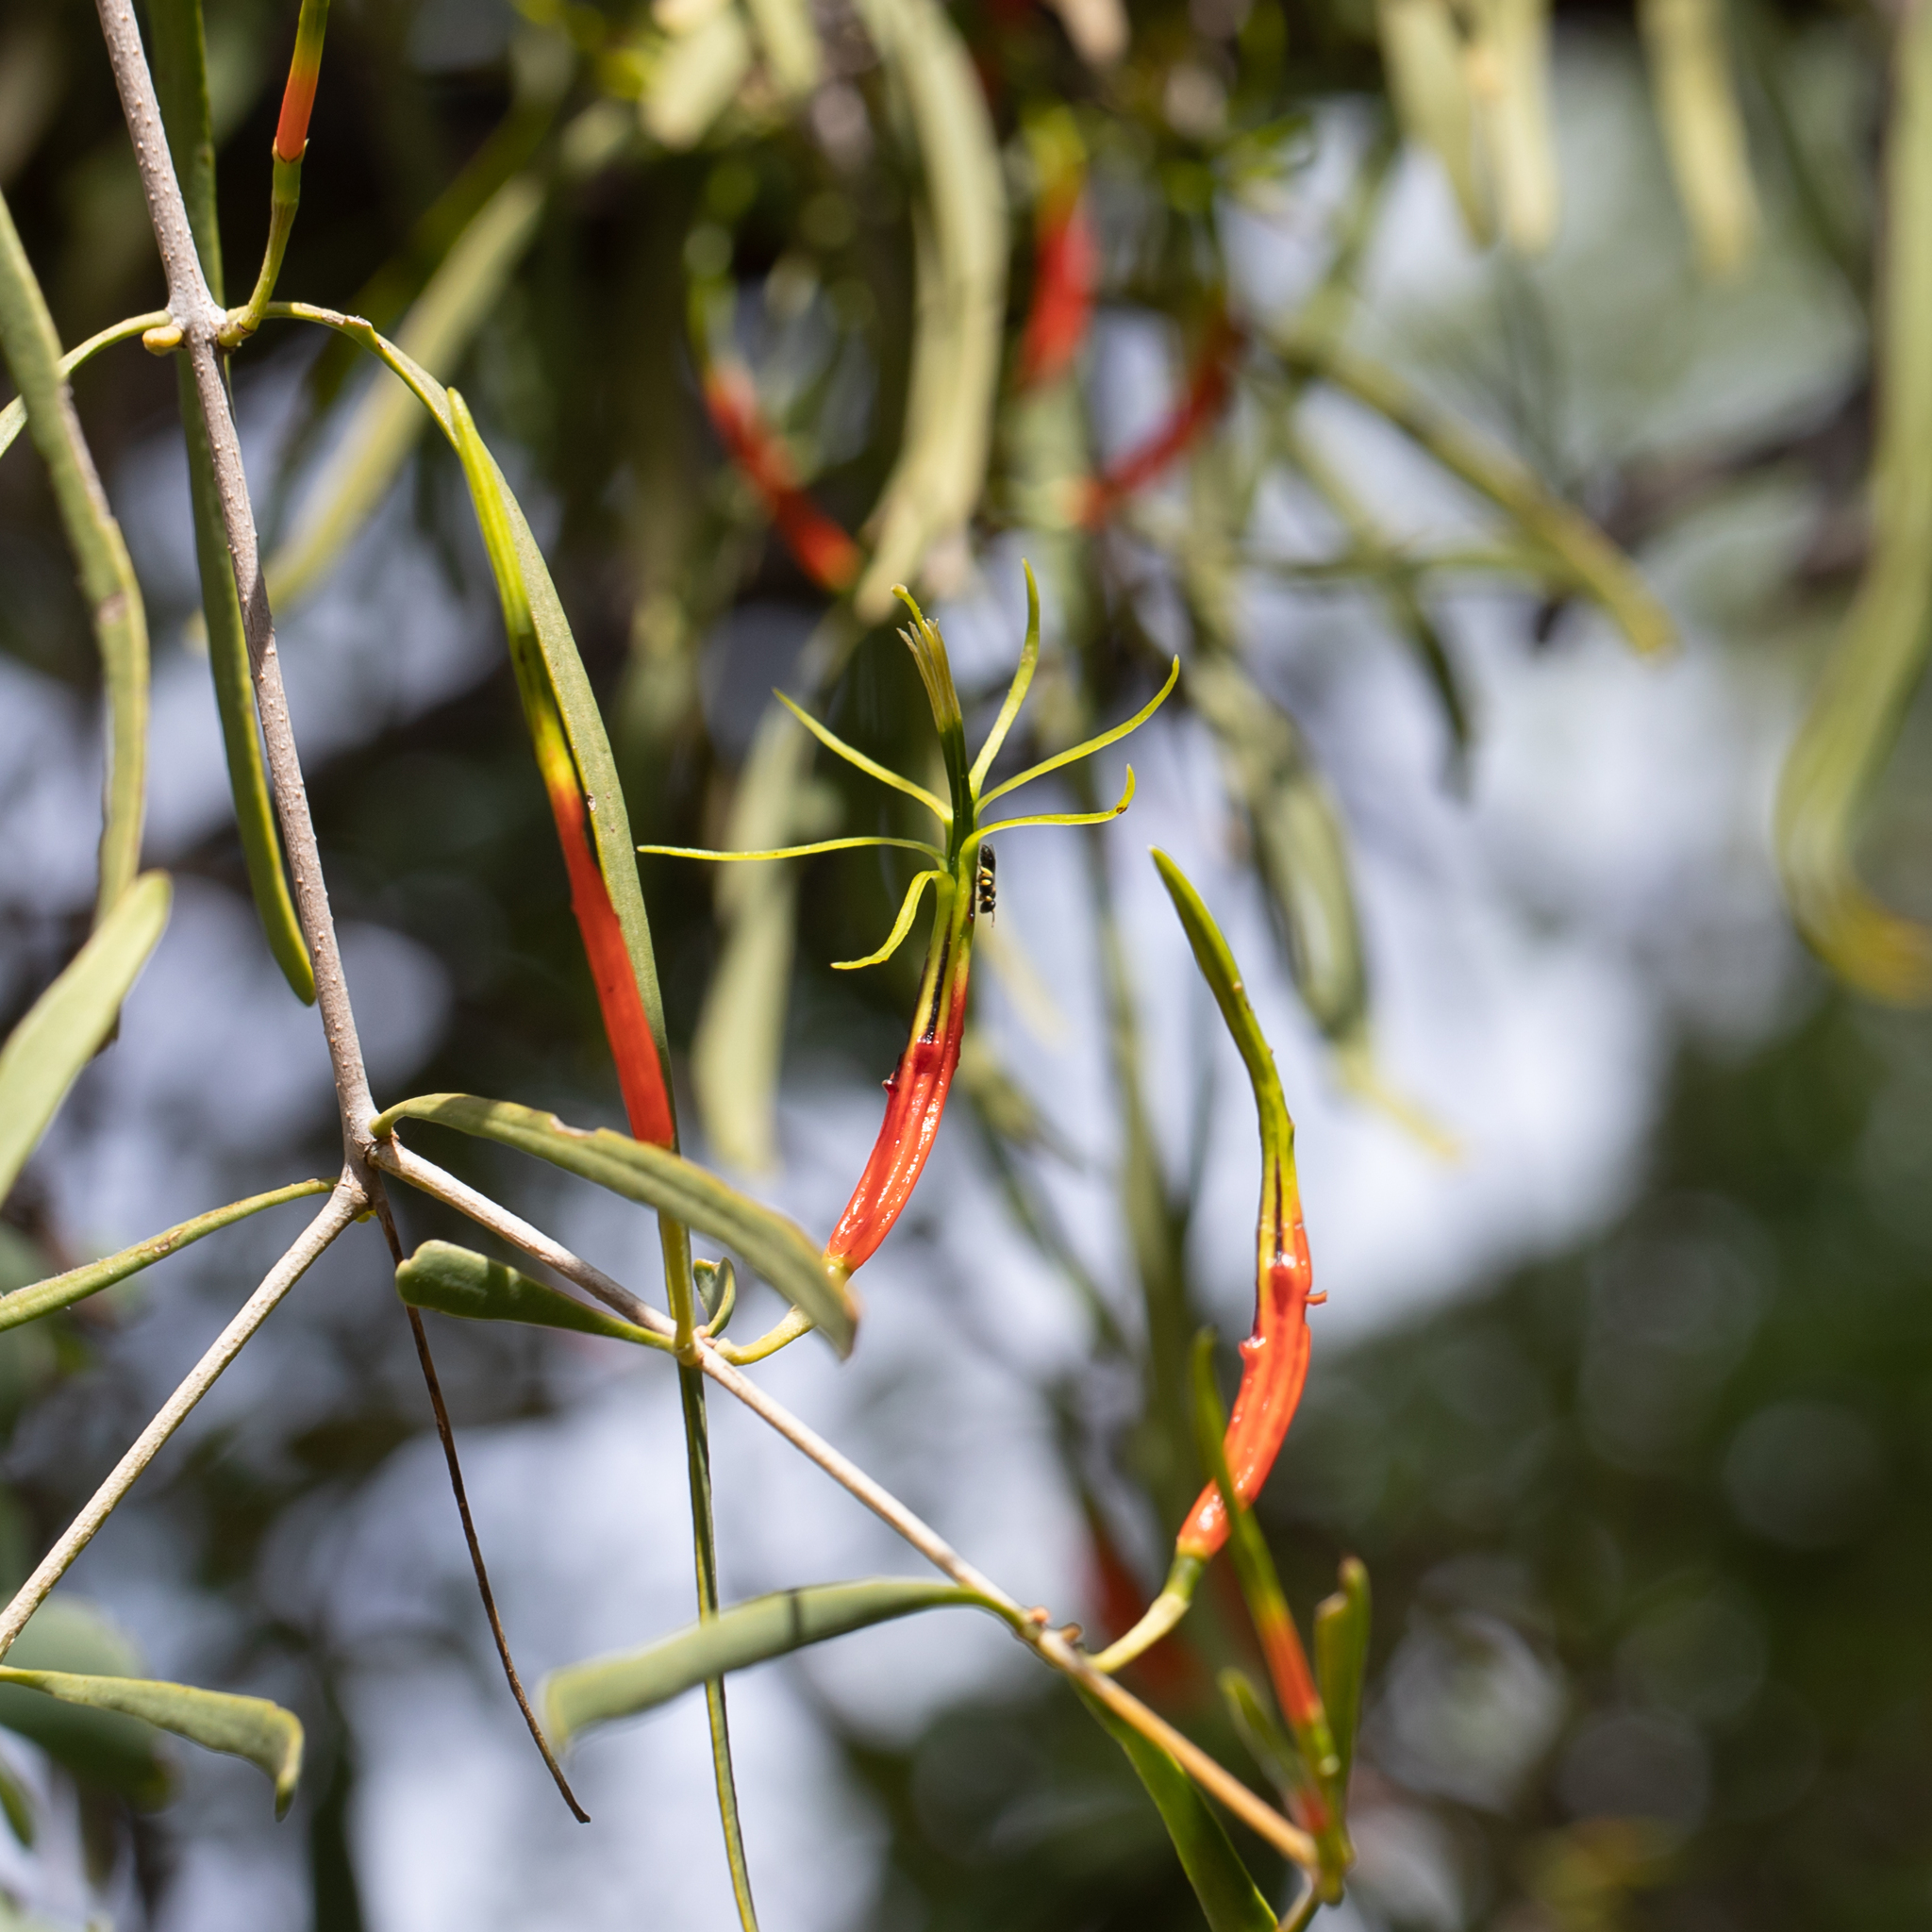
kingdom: Plantae
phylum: Tracheophyta
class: Magnoliopsida
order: Santalales
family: Loranthaceae
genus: Lysiana
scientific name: Lysiana subfalcata
